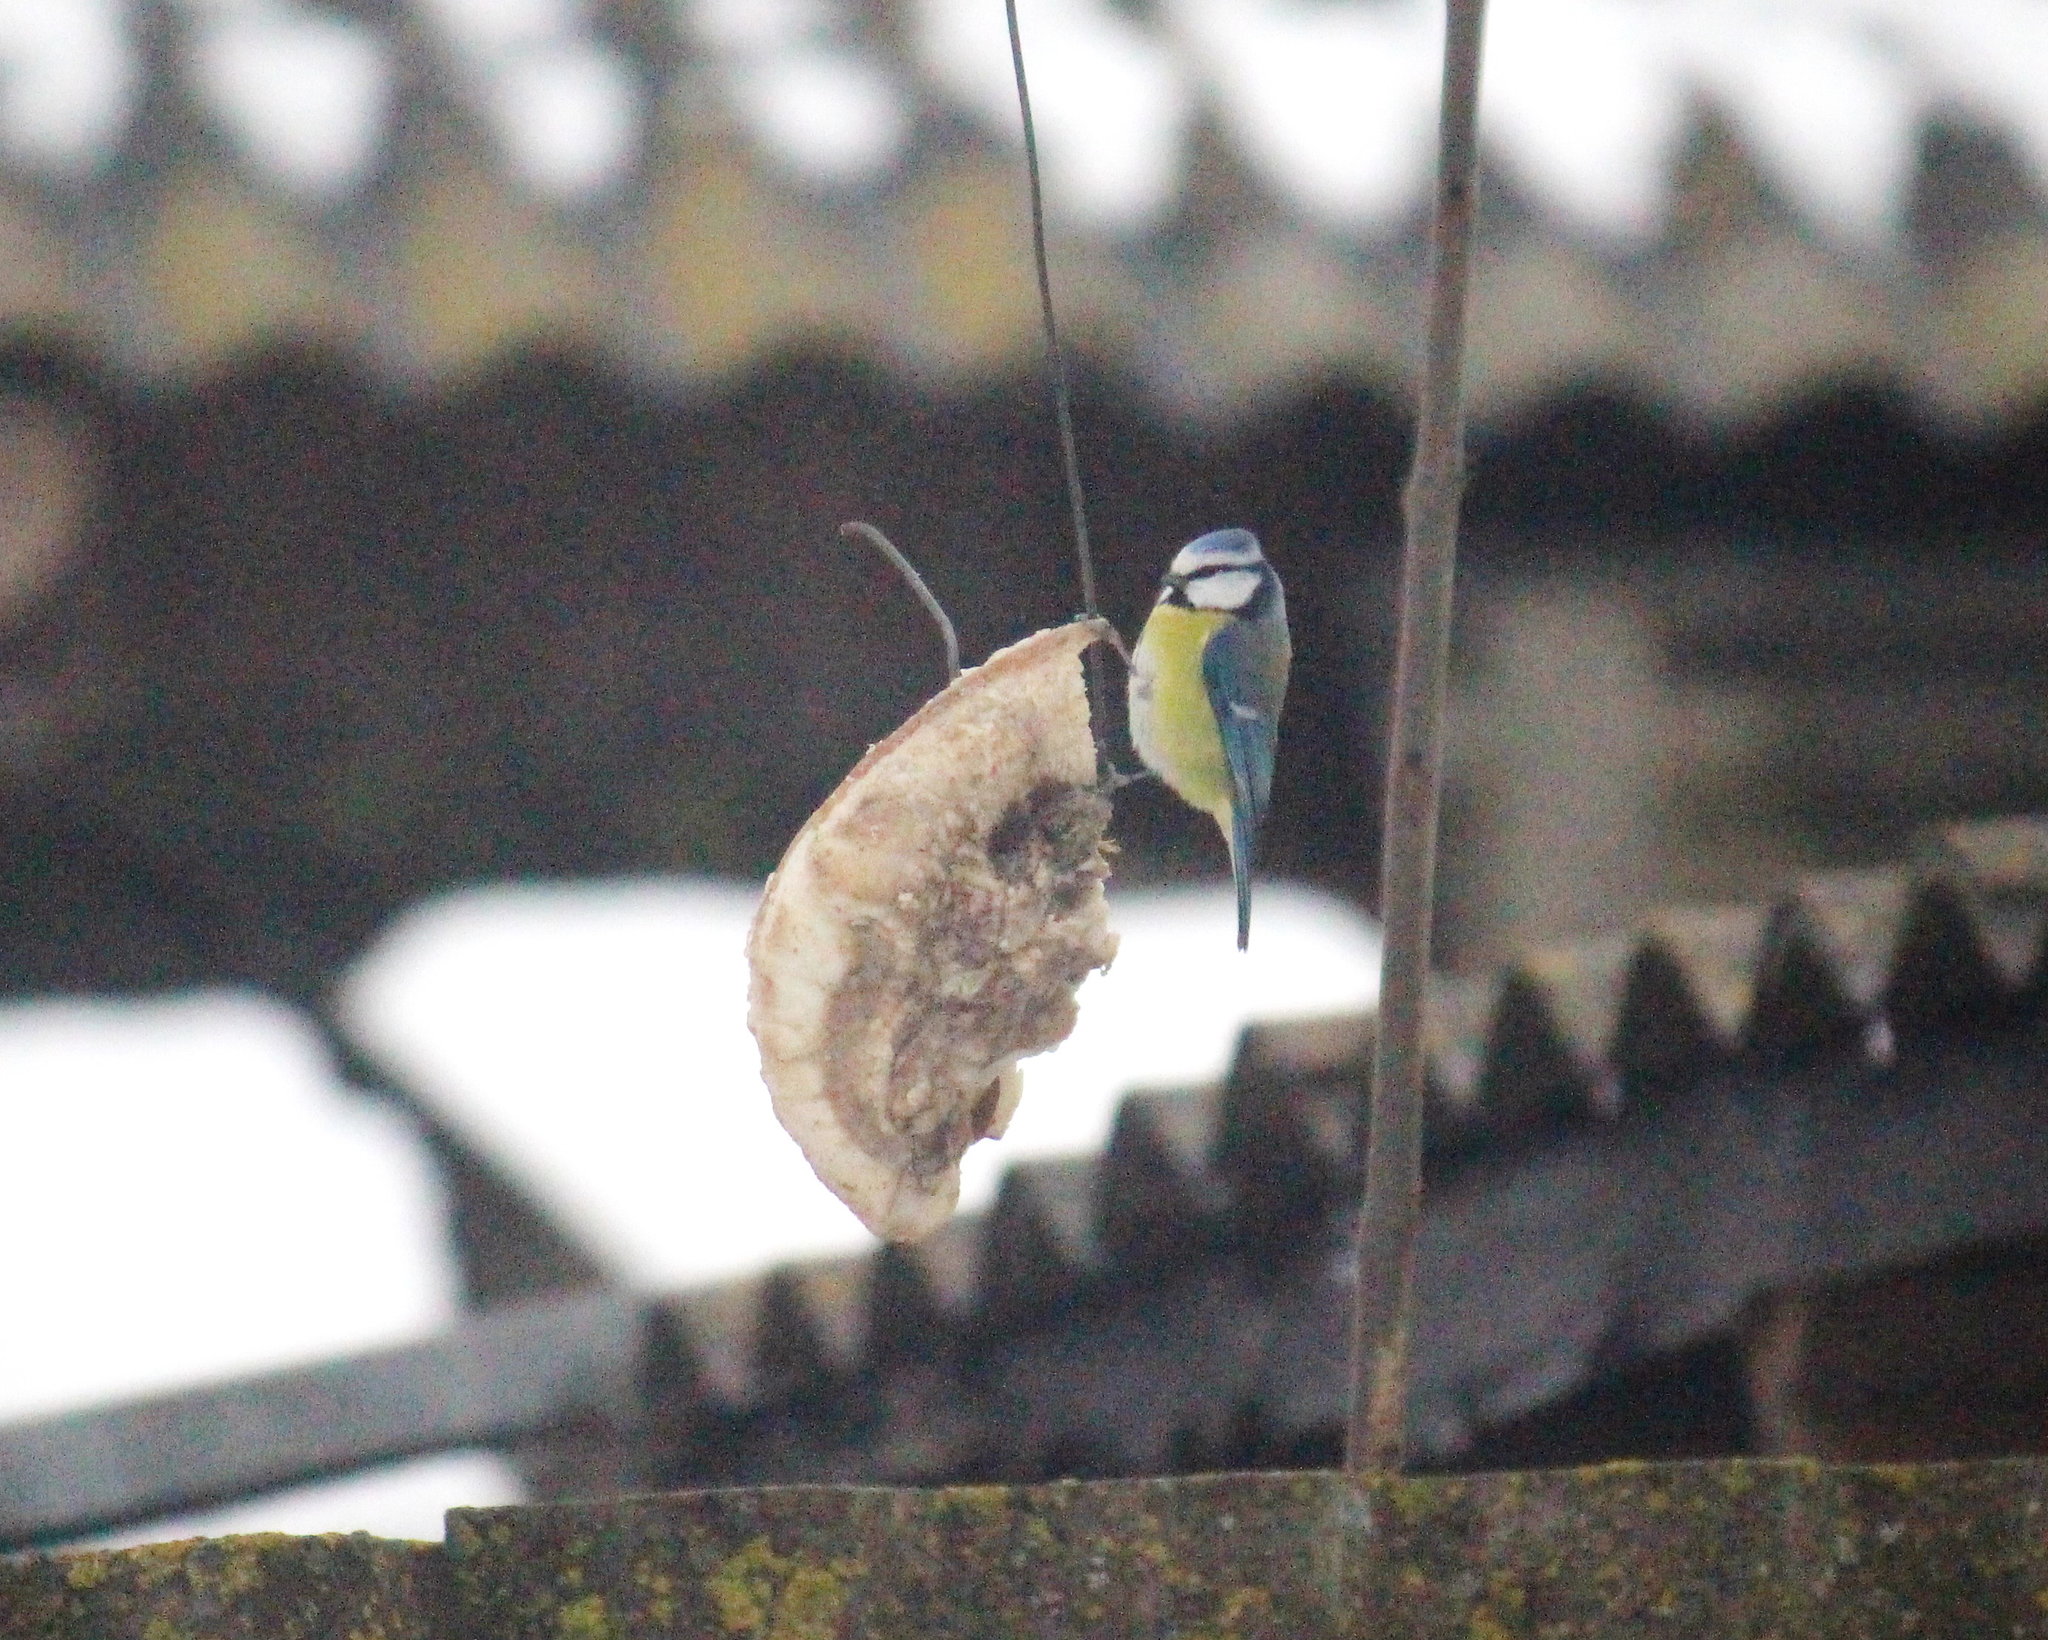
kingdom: Animalia
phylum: Chordata
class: Aves
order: Passeriformes
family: Paridae
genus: Cyanistes
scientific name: Cyanistes caeruleus
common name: Eurasian blue tit
